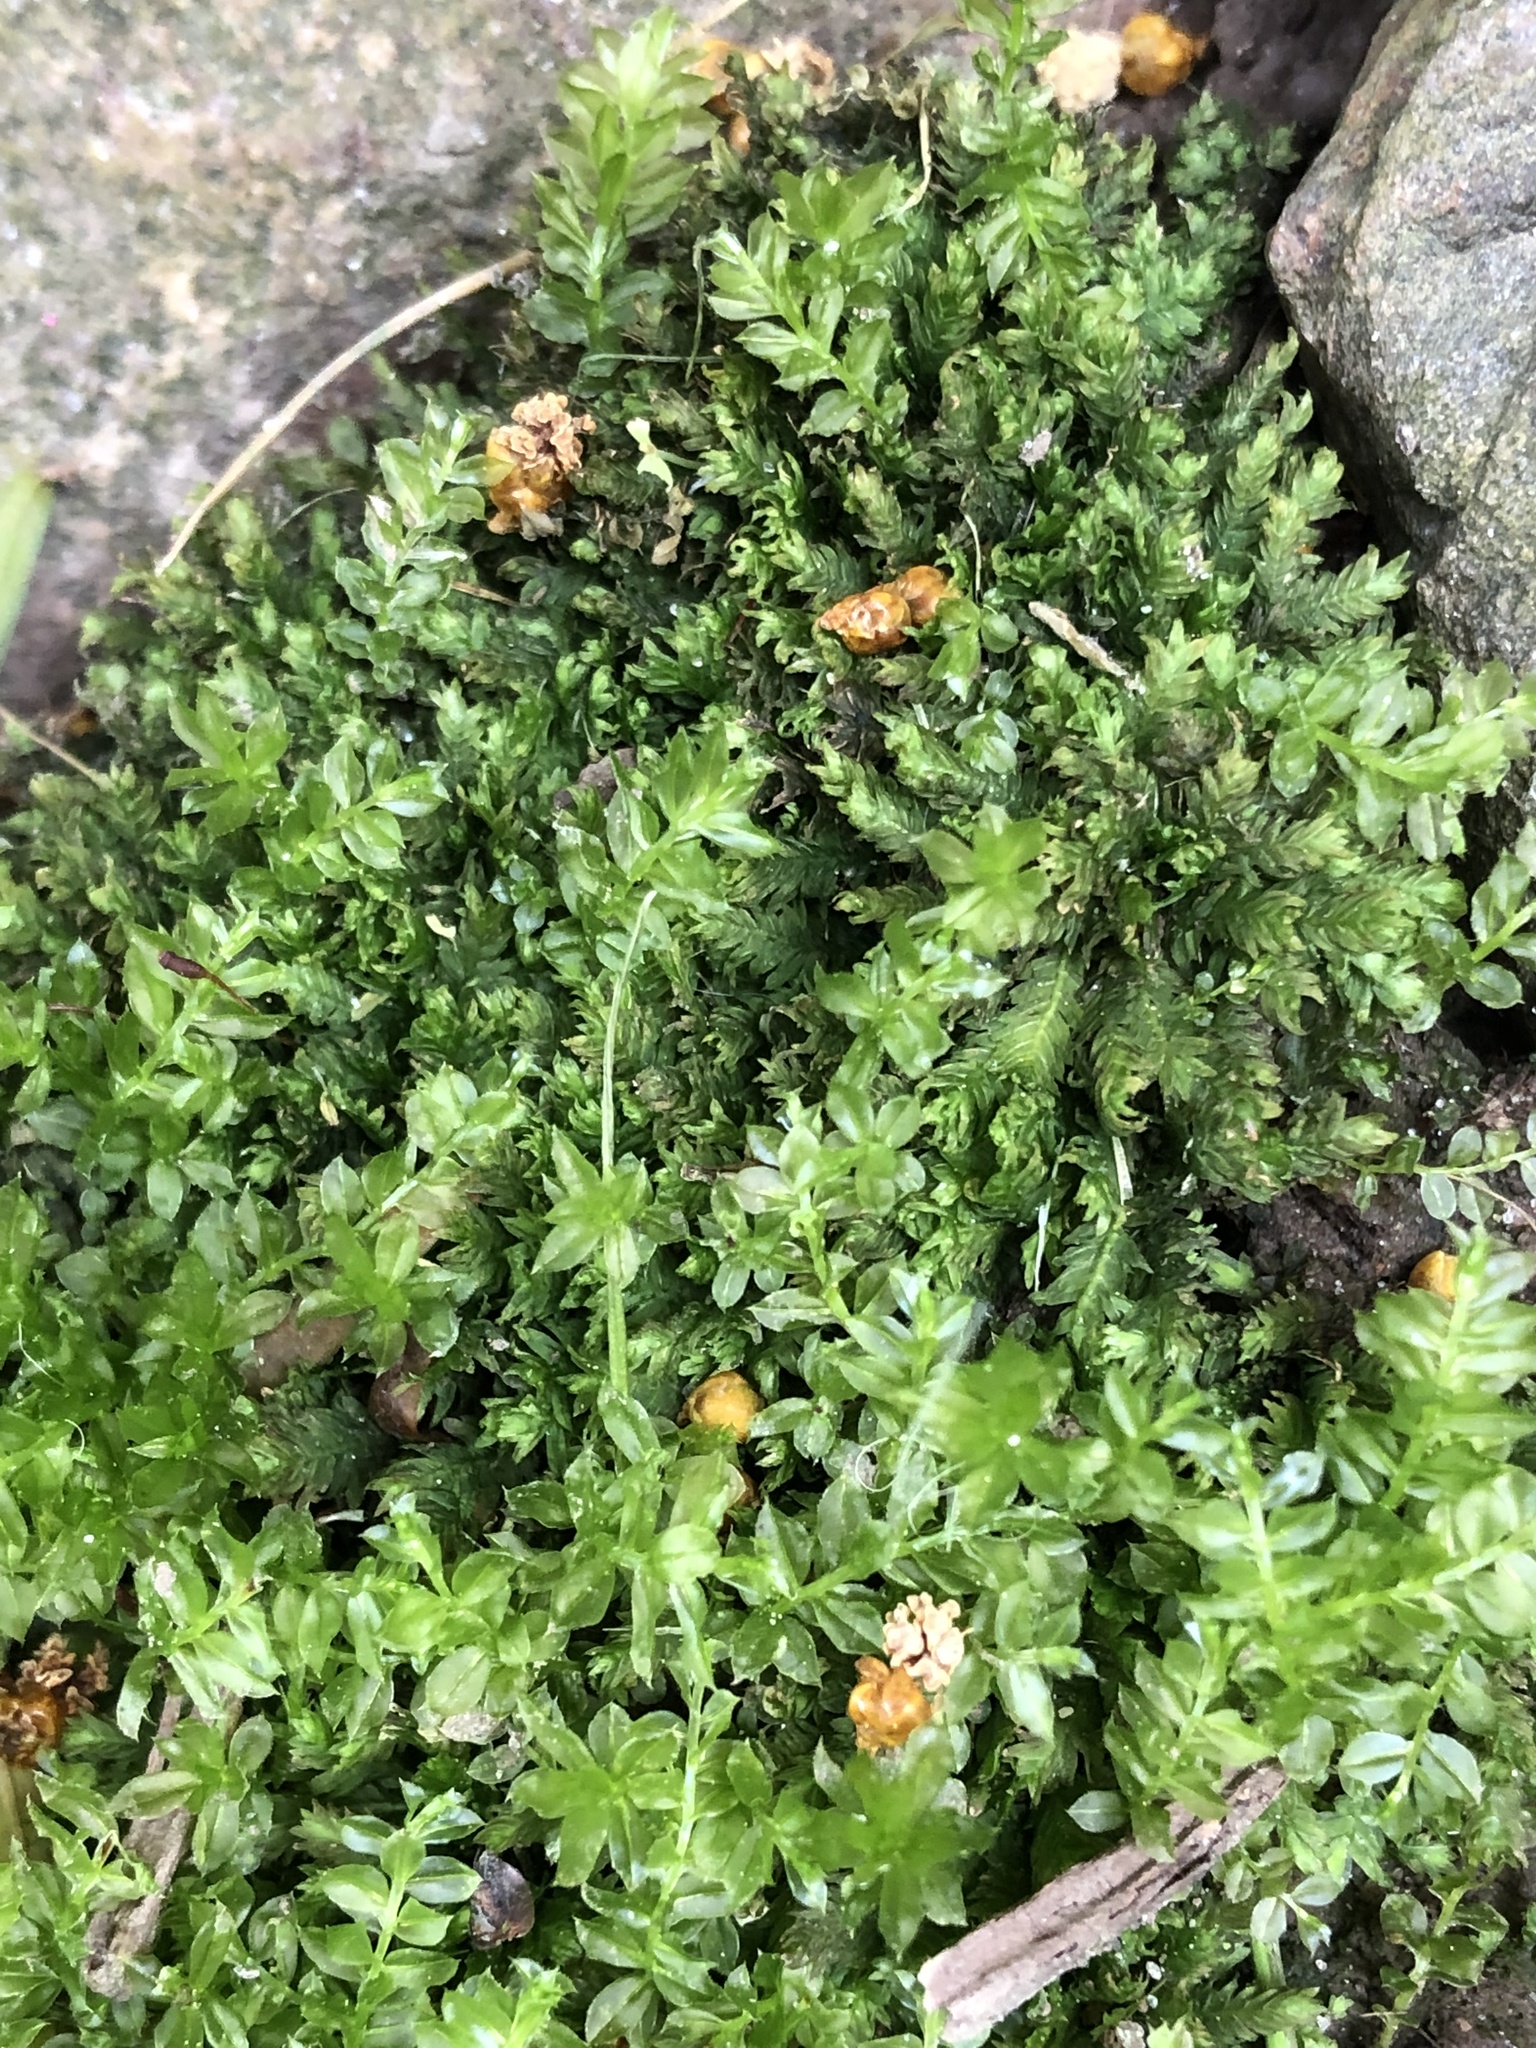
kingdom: Plantae
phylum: Bryophyta
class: Bryopsida
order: Bryales
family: Mniaceae
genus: Plagiomnium
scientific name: Plagiomnium cuspidatum
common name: Woodsy leafy moss
